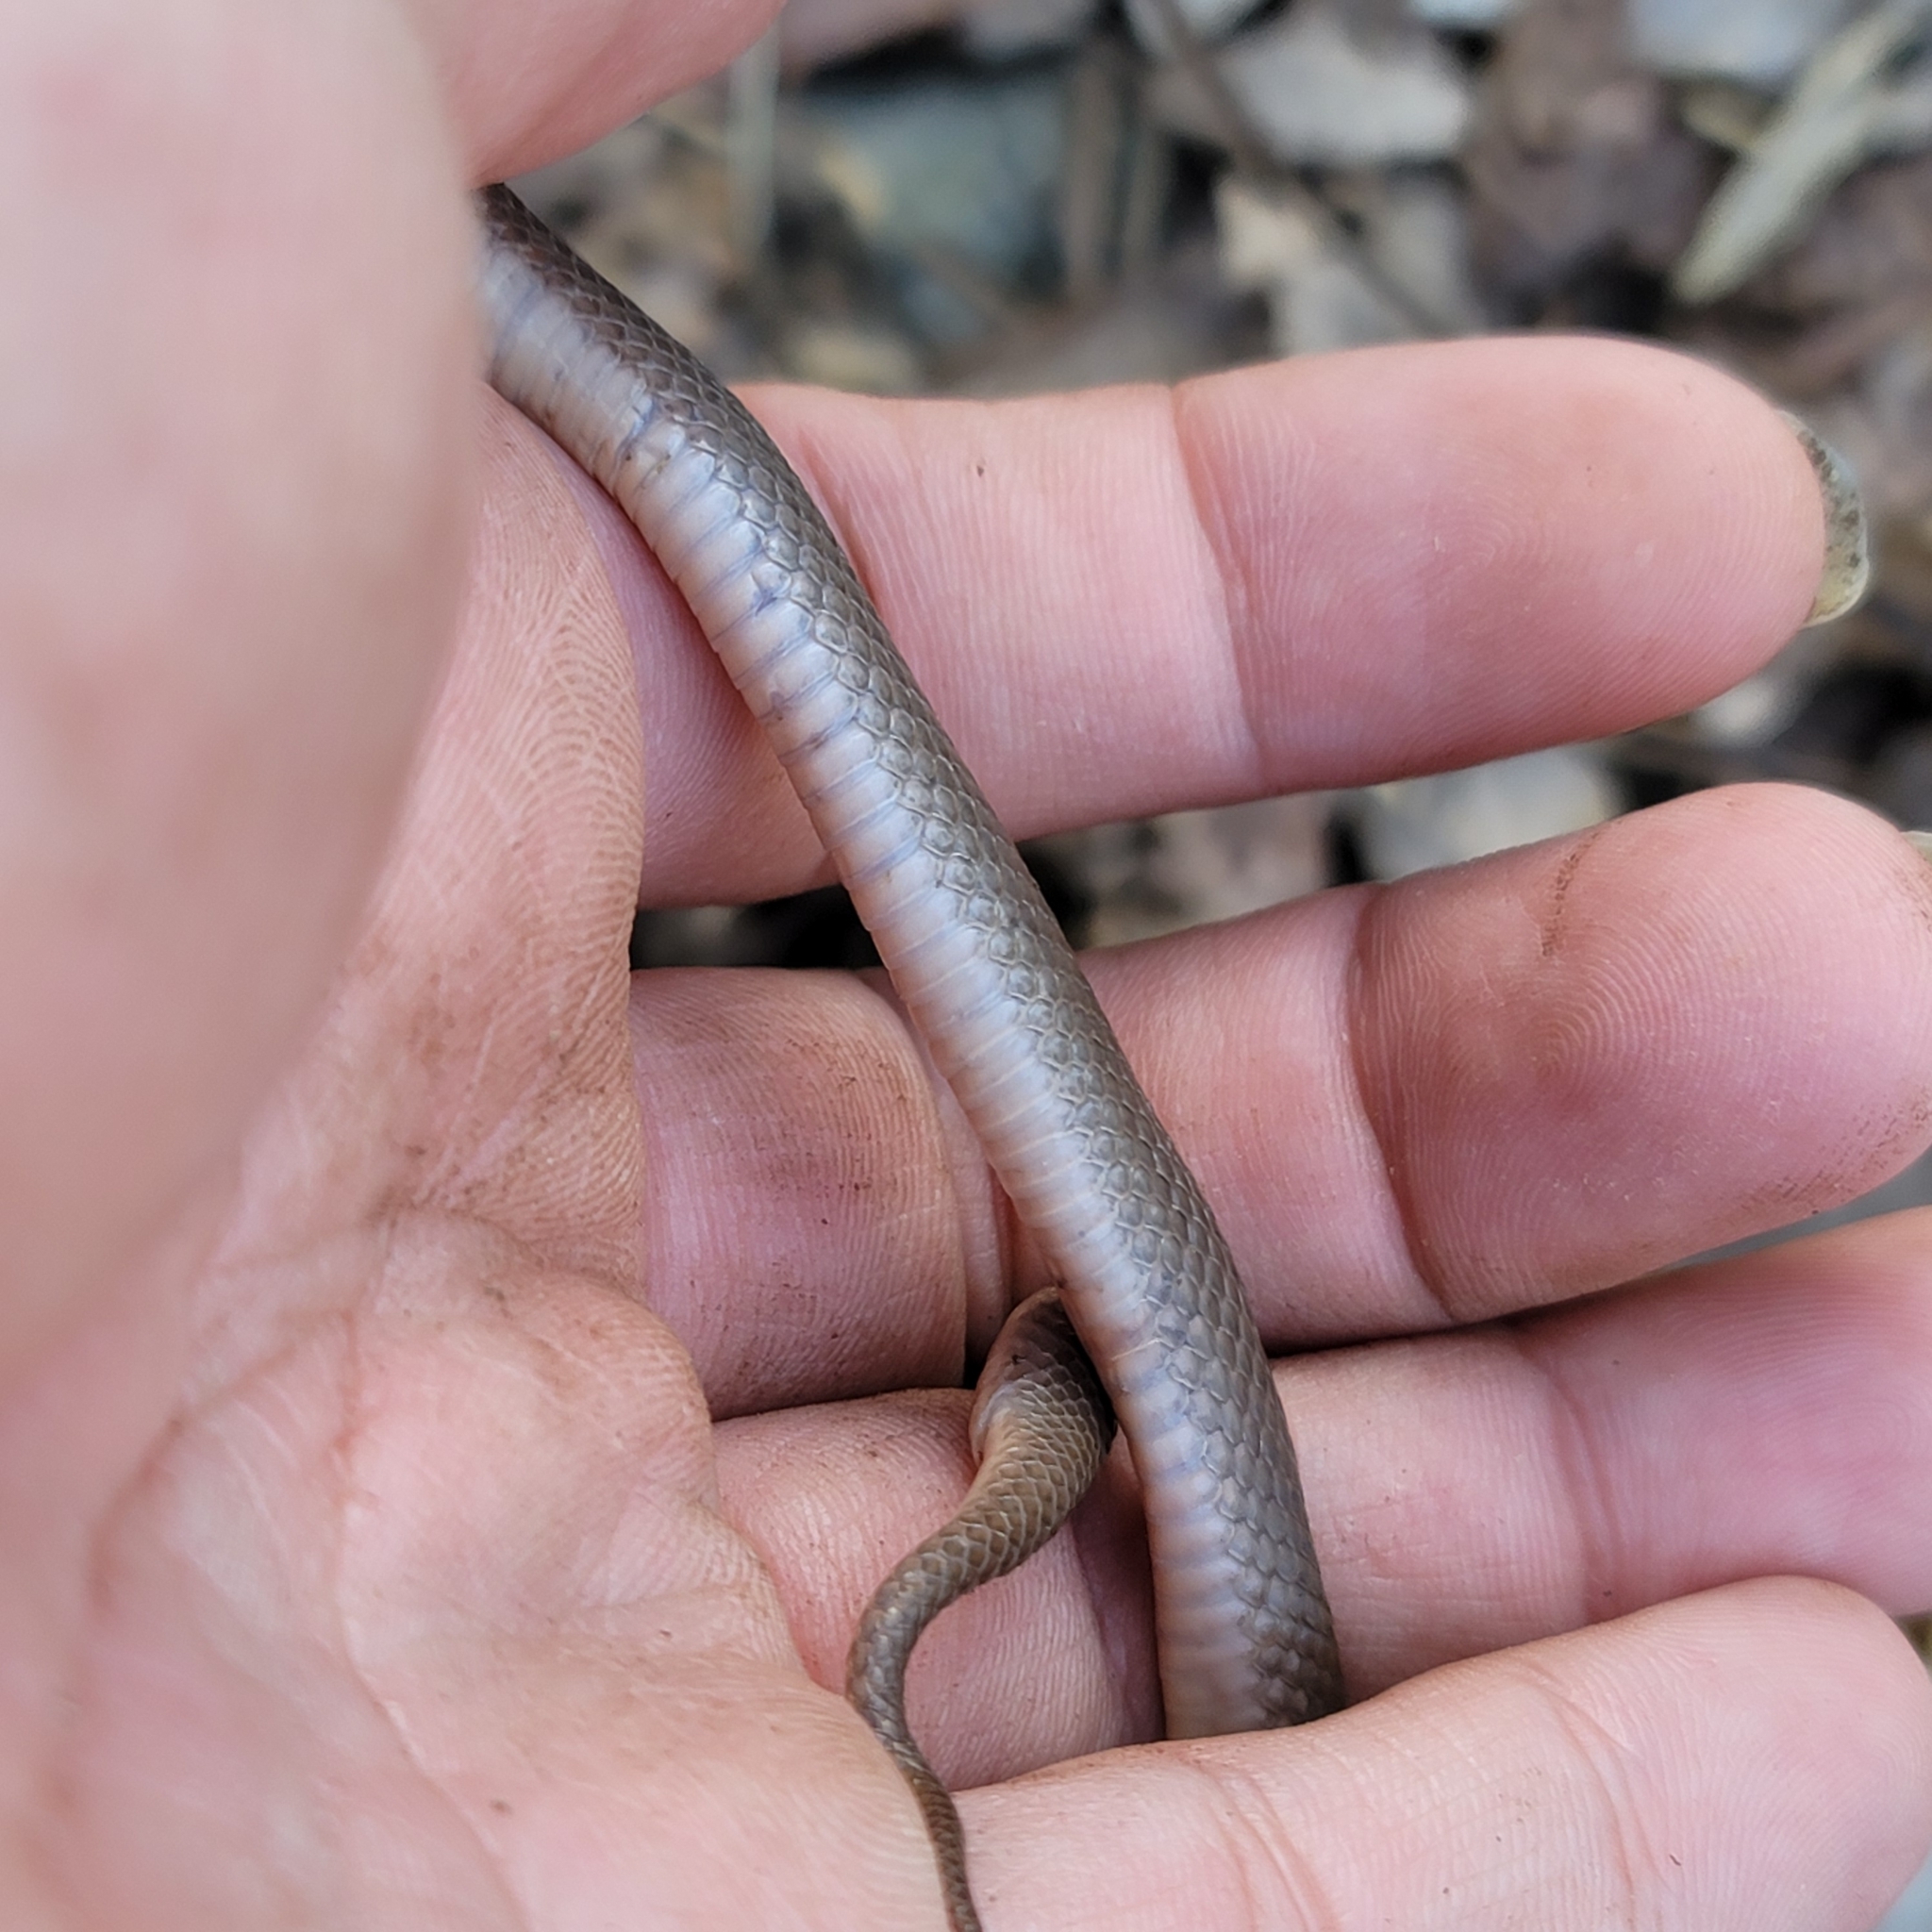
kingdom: Animalia
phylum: Chordata
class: Squamata
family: Colubridae
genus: Virginia
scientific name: Virginia valeriae
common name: Smooth earth snake
